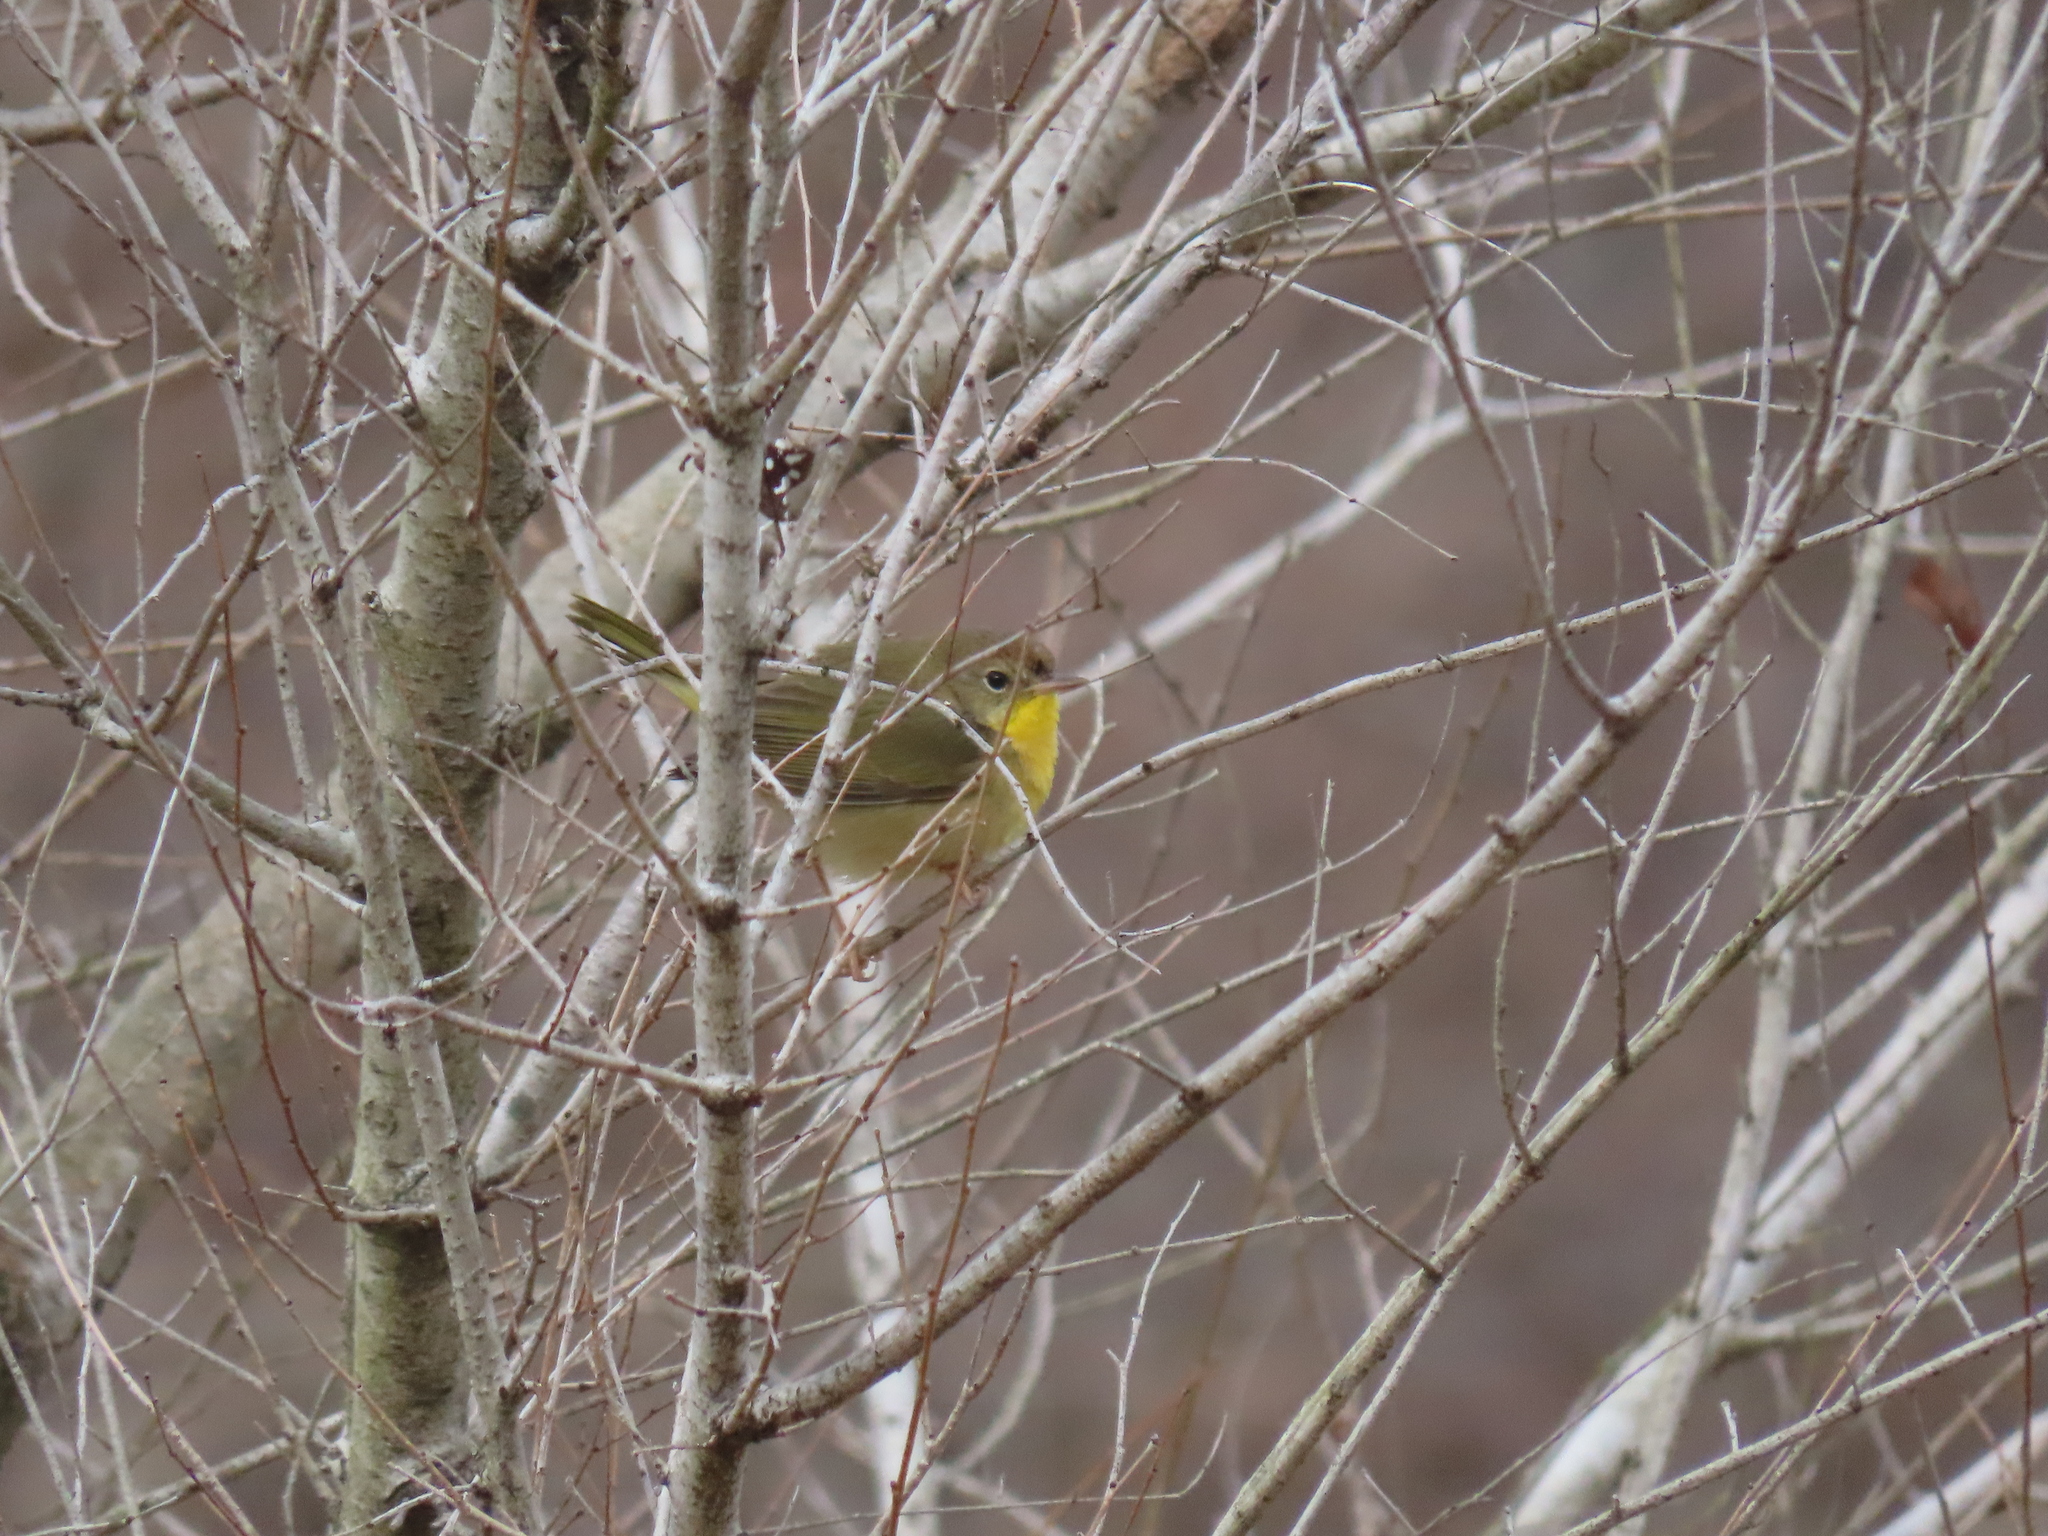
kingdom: Animalia
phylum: Chordata
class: Aves
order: Passeriformes
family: Parulidae
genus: Geothlypis
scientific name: Geothlypis trichas
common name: Common yellowthroat
